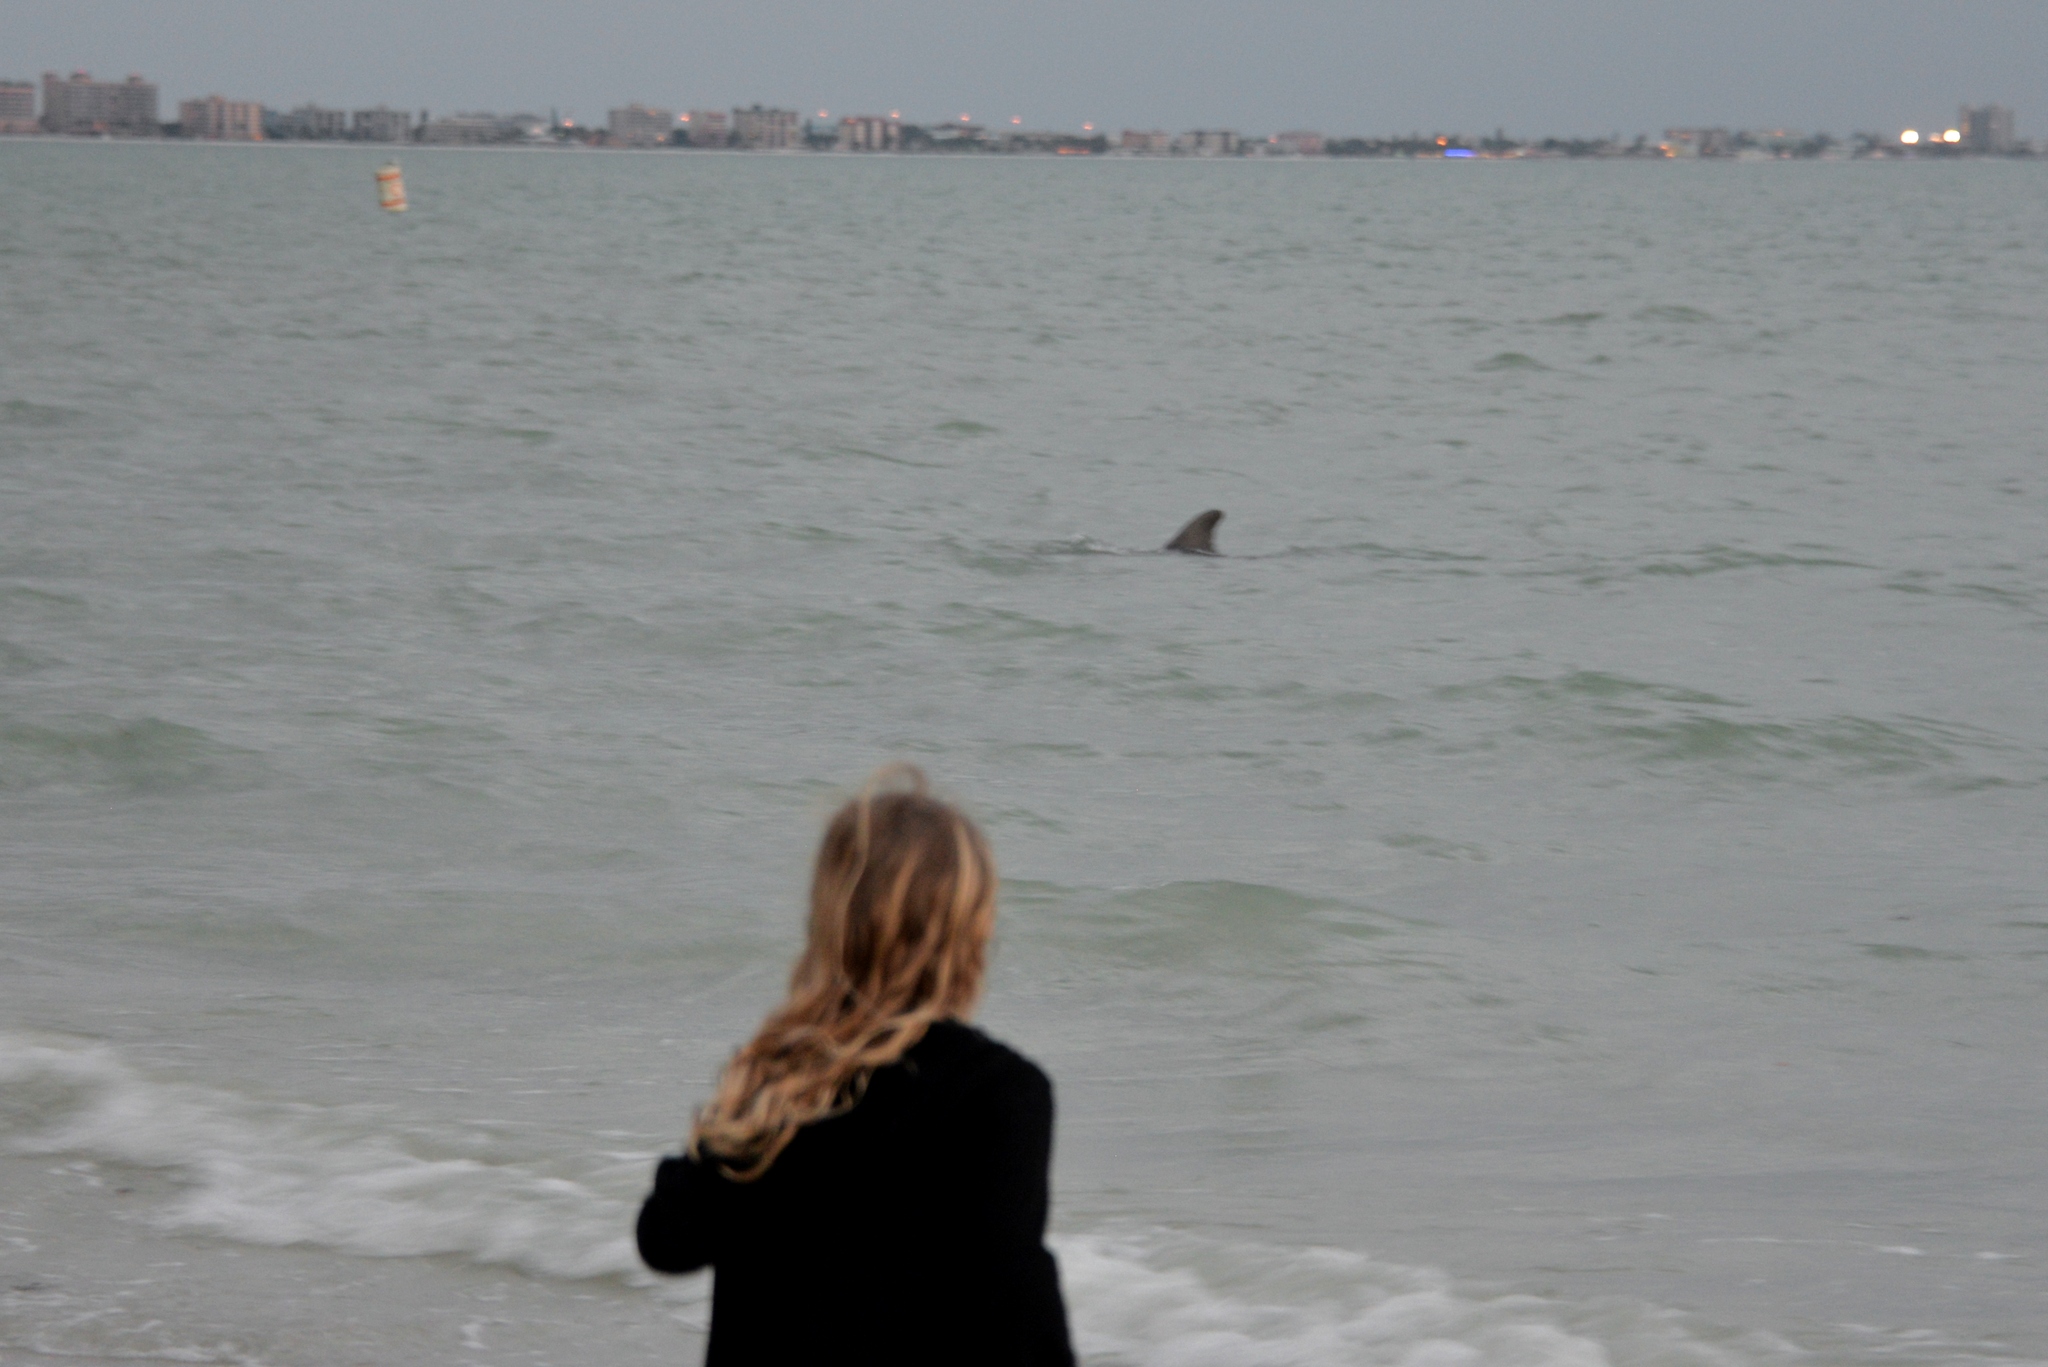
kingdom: Animalia
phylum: Chordata
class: Mammalia
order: Cetacea
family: Delphinidae
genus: Tursiops
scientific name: Tursiops truncatus
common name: Bottlenose dolphin
